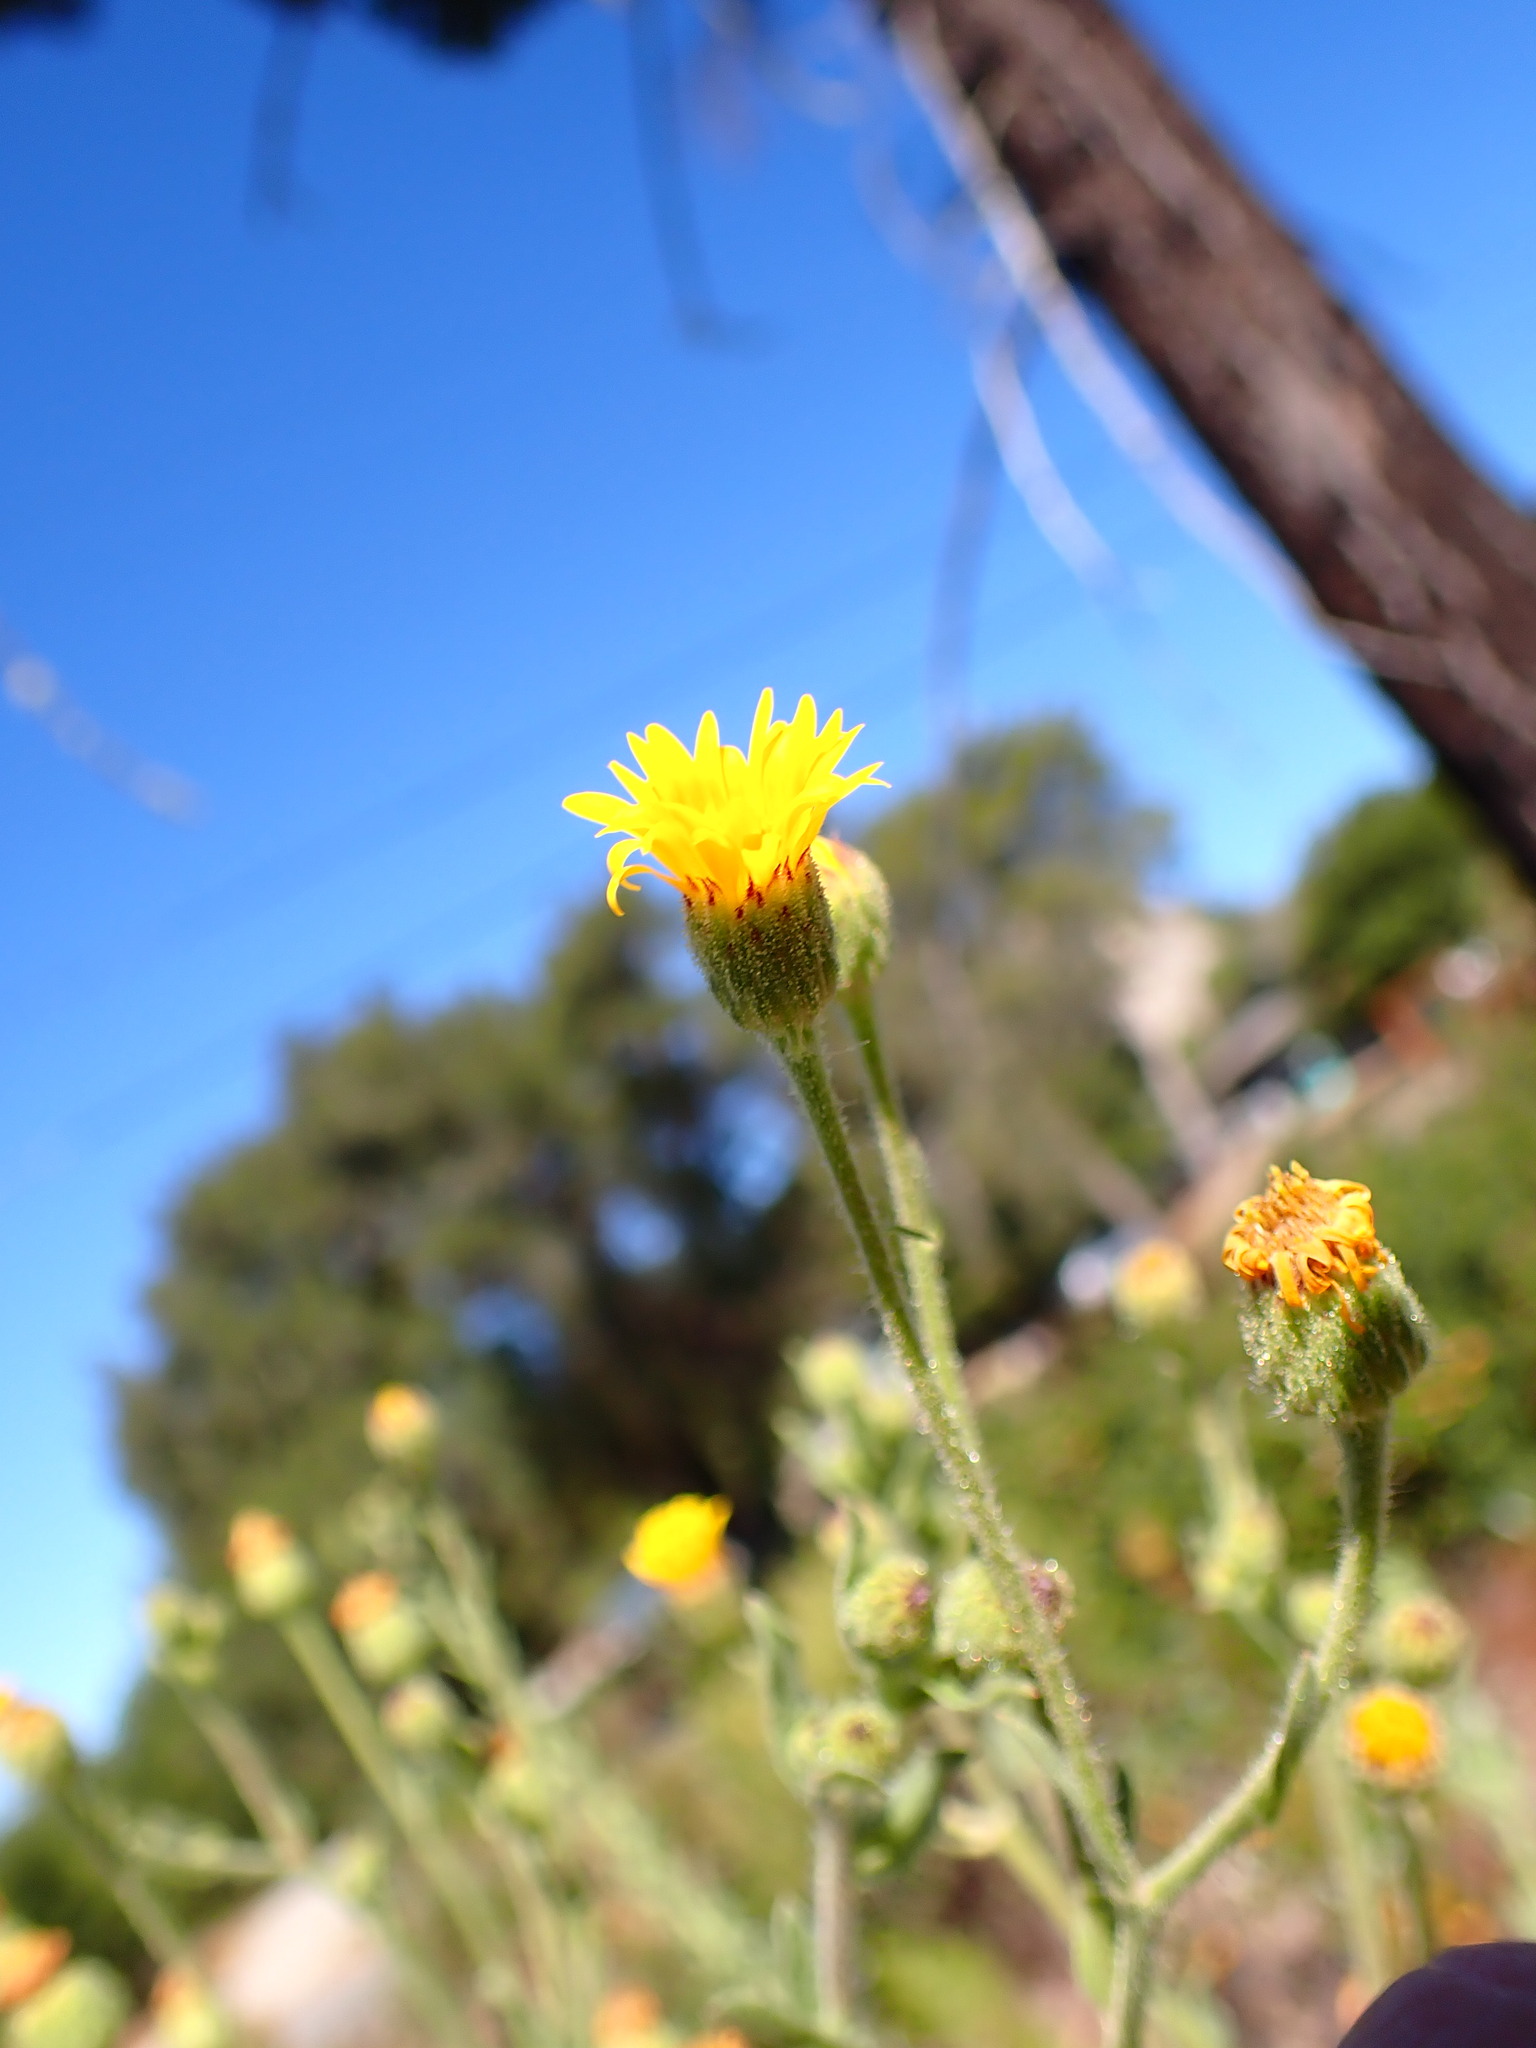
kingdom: Plantae
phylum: Tracheophyta
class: Magnoliopsida
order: Asterales
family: Asteraceae
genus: Heterotheca
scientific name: Heterotheca grandiflora
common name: Telegraphweed
